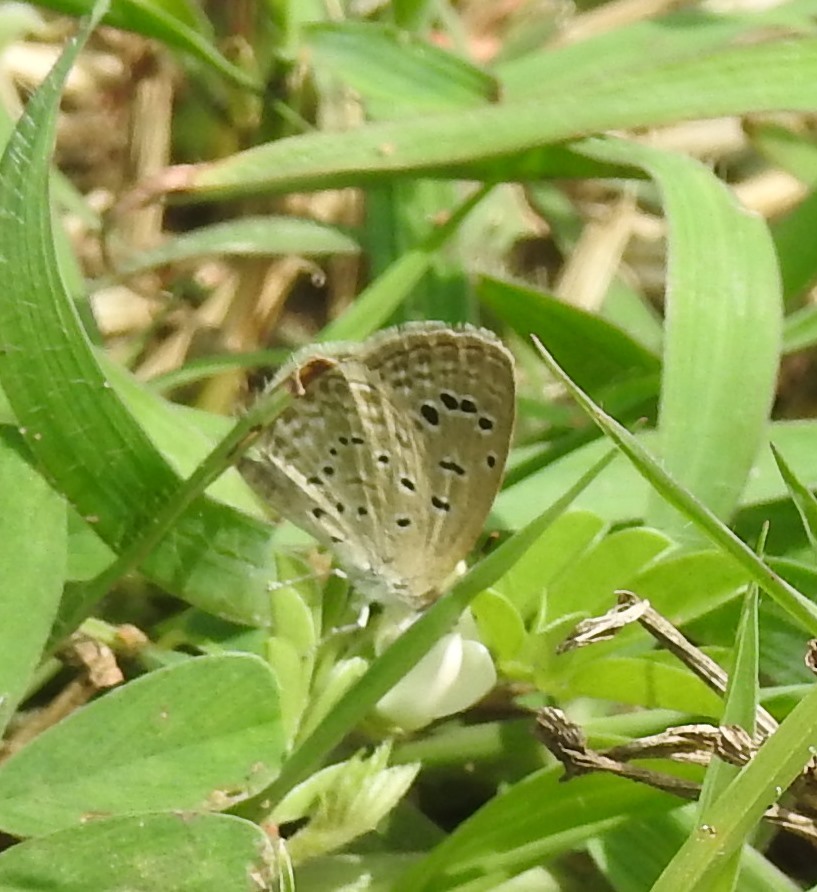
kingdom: Animalia
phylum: Arthropoda
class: Insecta
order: Lepidoptera
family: Lycaenidae
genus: Zizeeria
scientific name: Zizeeria karsandra
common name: Dark grass blue
